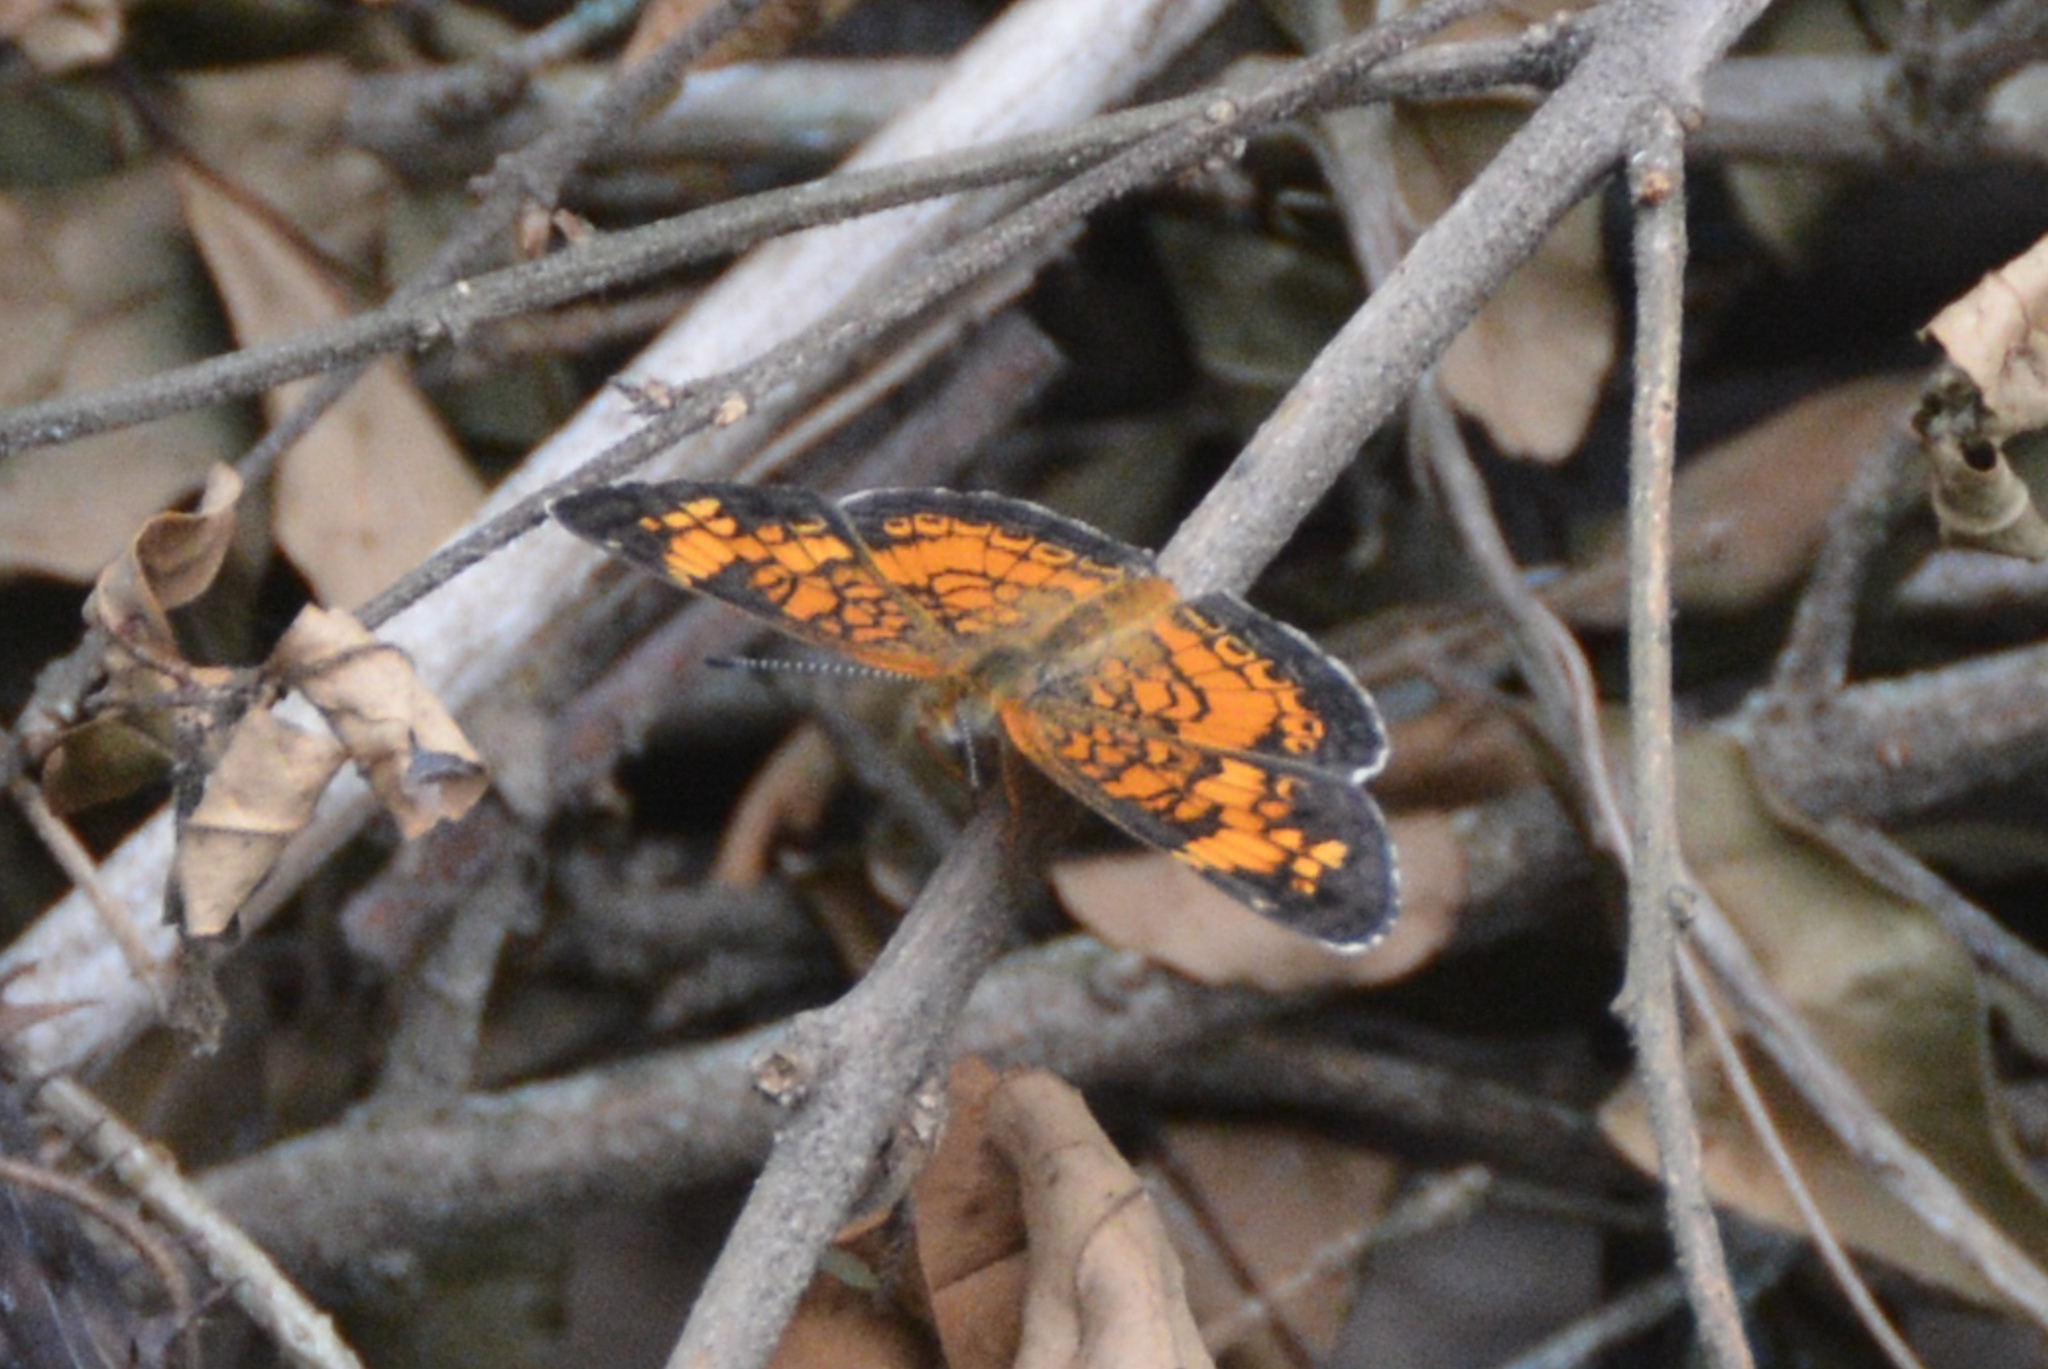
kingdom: Animalia
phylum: Arthropoda
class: Insecta
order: Lepidoptera
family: Nymphalidae
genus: Phyciodes
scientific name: Phyciodes tharos
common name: Pearl crescent
